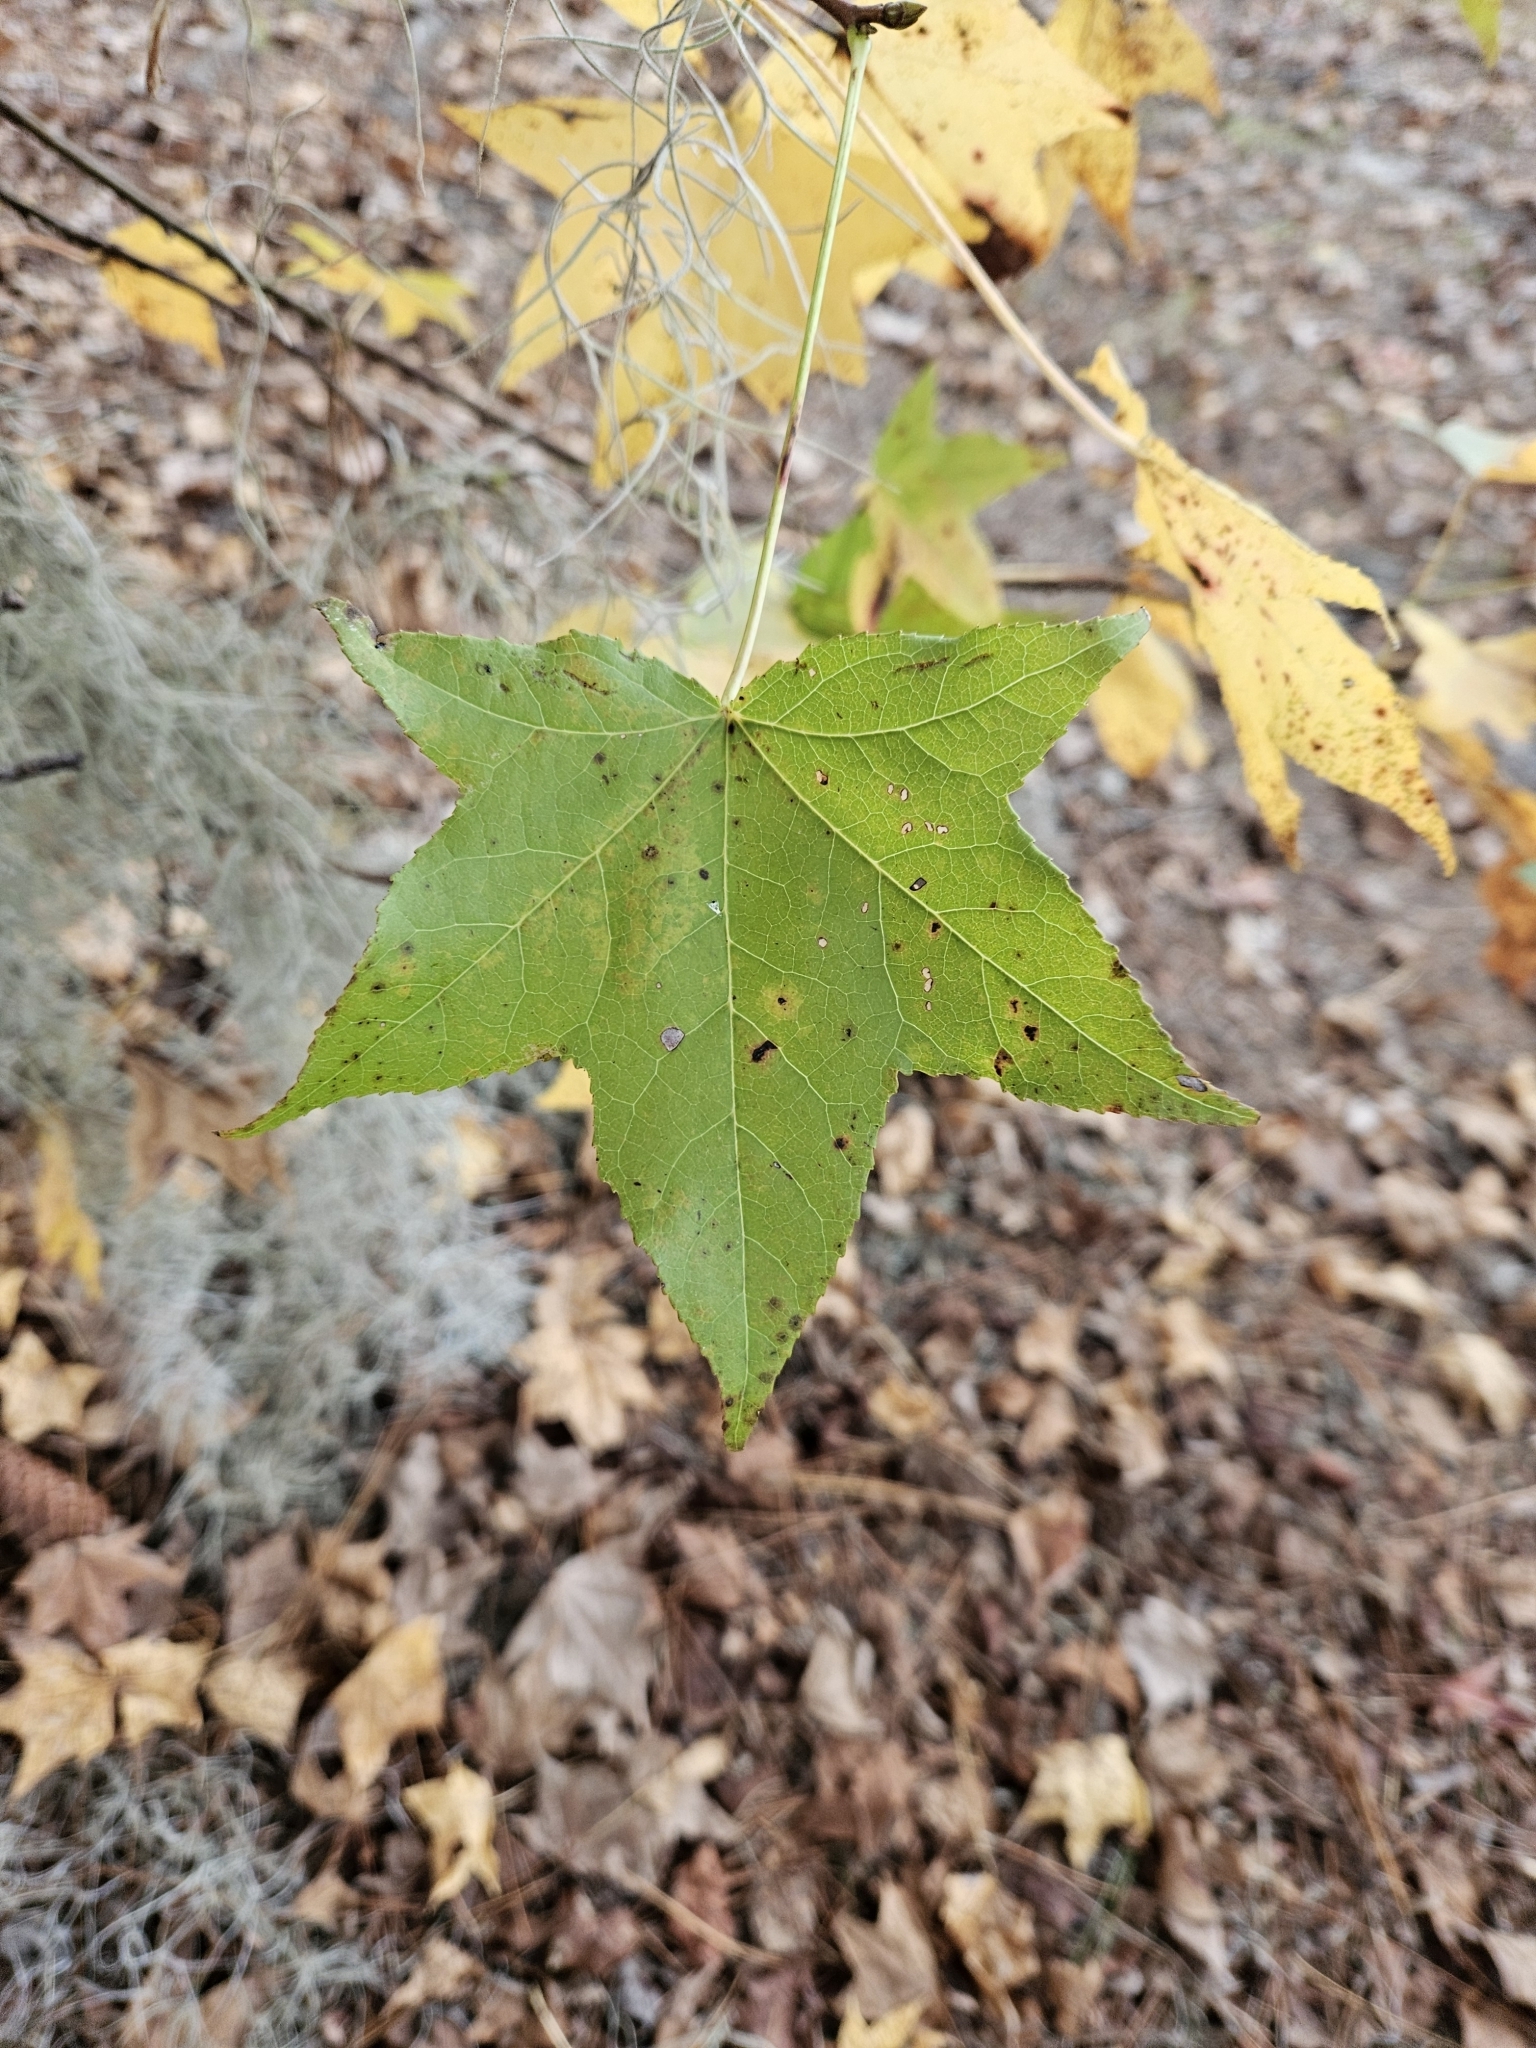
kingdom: Plantae
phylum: Tracheophyta
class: Magnoliopsida
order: Saxifragales
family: Altingiaceae
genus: Liquidambar
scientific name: Liquidambar styraciflua
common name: Sweet gum
